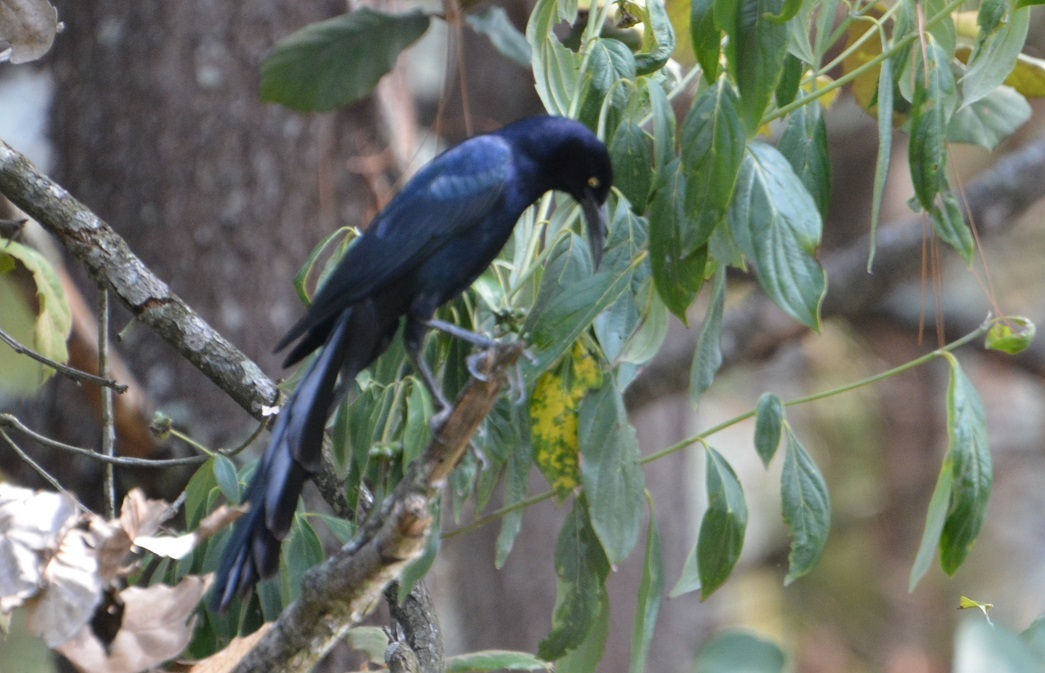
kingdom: Animalia
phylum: Chordata
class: Aves
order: Passeriformes
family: Icteridae
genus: Quiscalus
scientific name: Quiscalus mexicanus
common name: Great-tailed grackle
